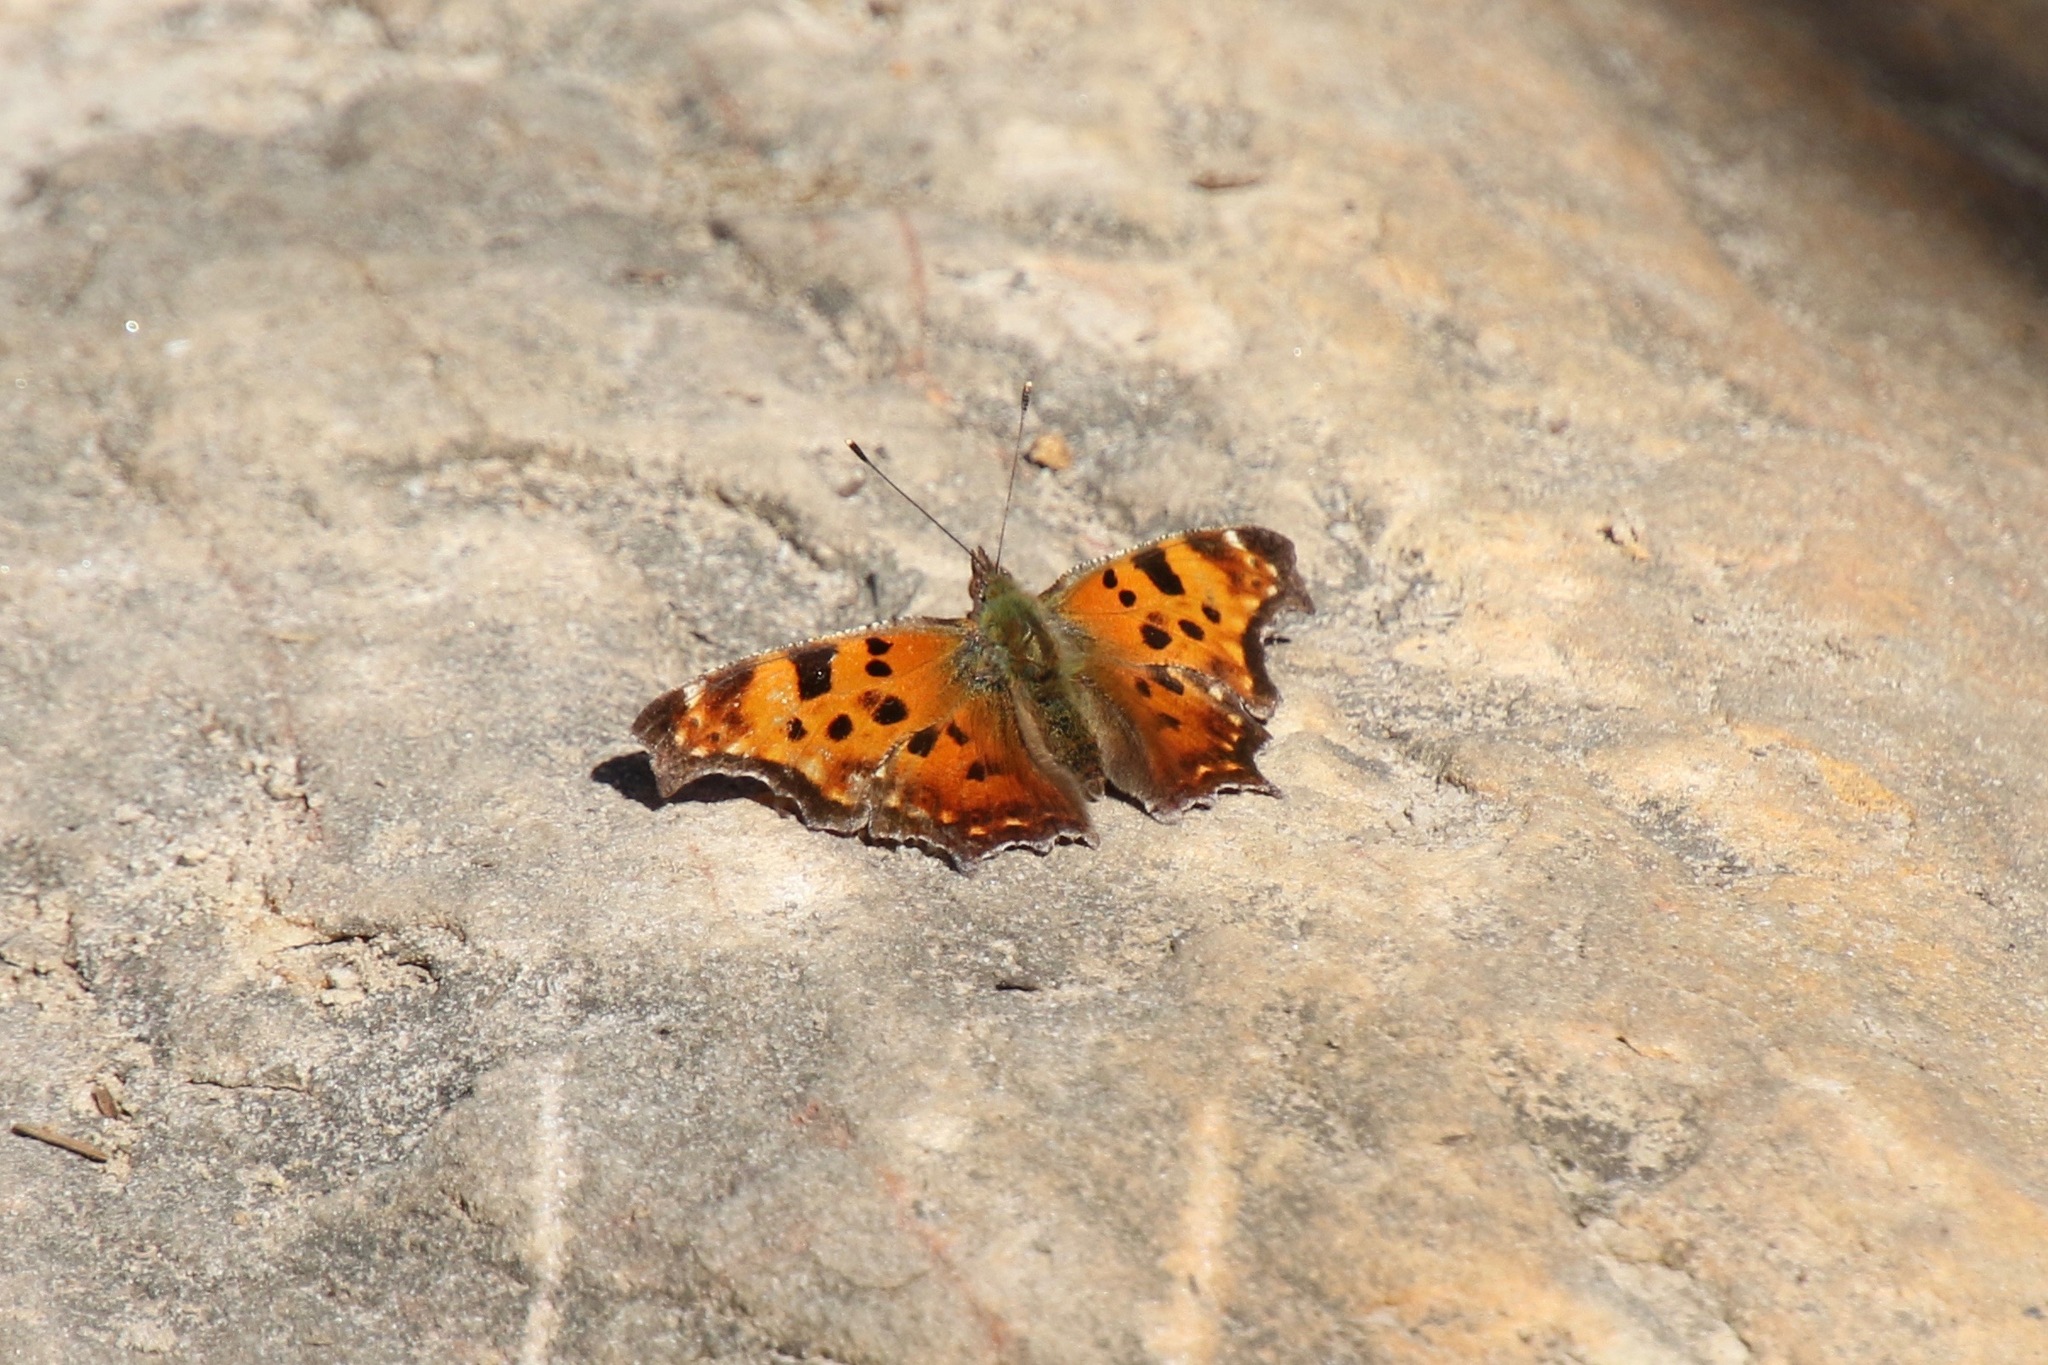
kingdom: Animalia
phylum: Arthropoda
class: Insecta
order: Lepidoptera
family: Nymphalidae
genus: Polygonia
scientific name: Polygonia comma
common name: Eastern comma
